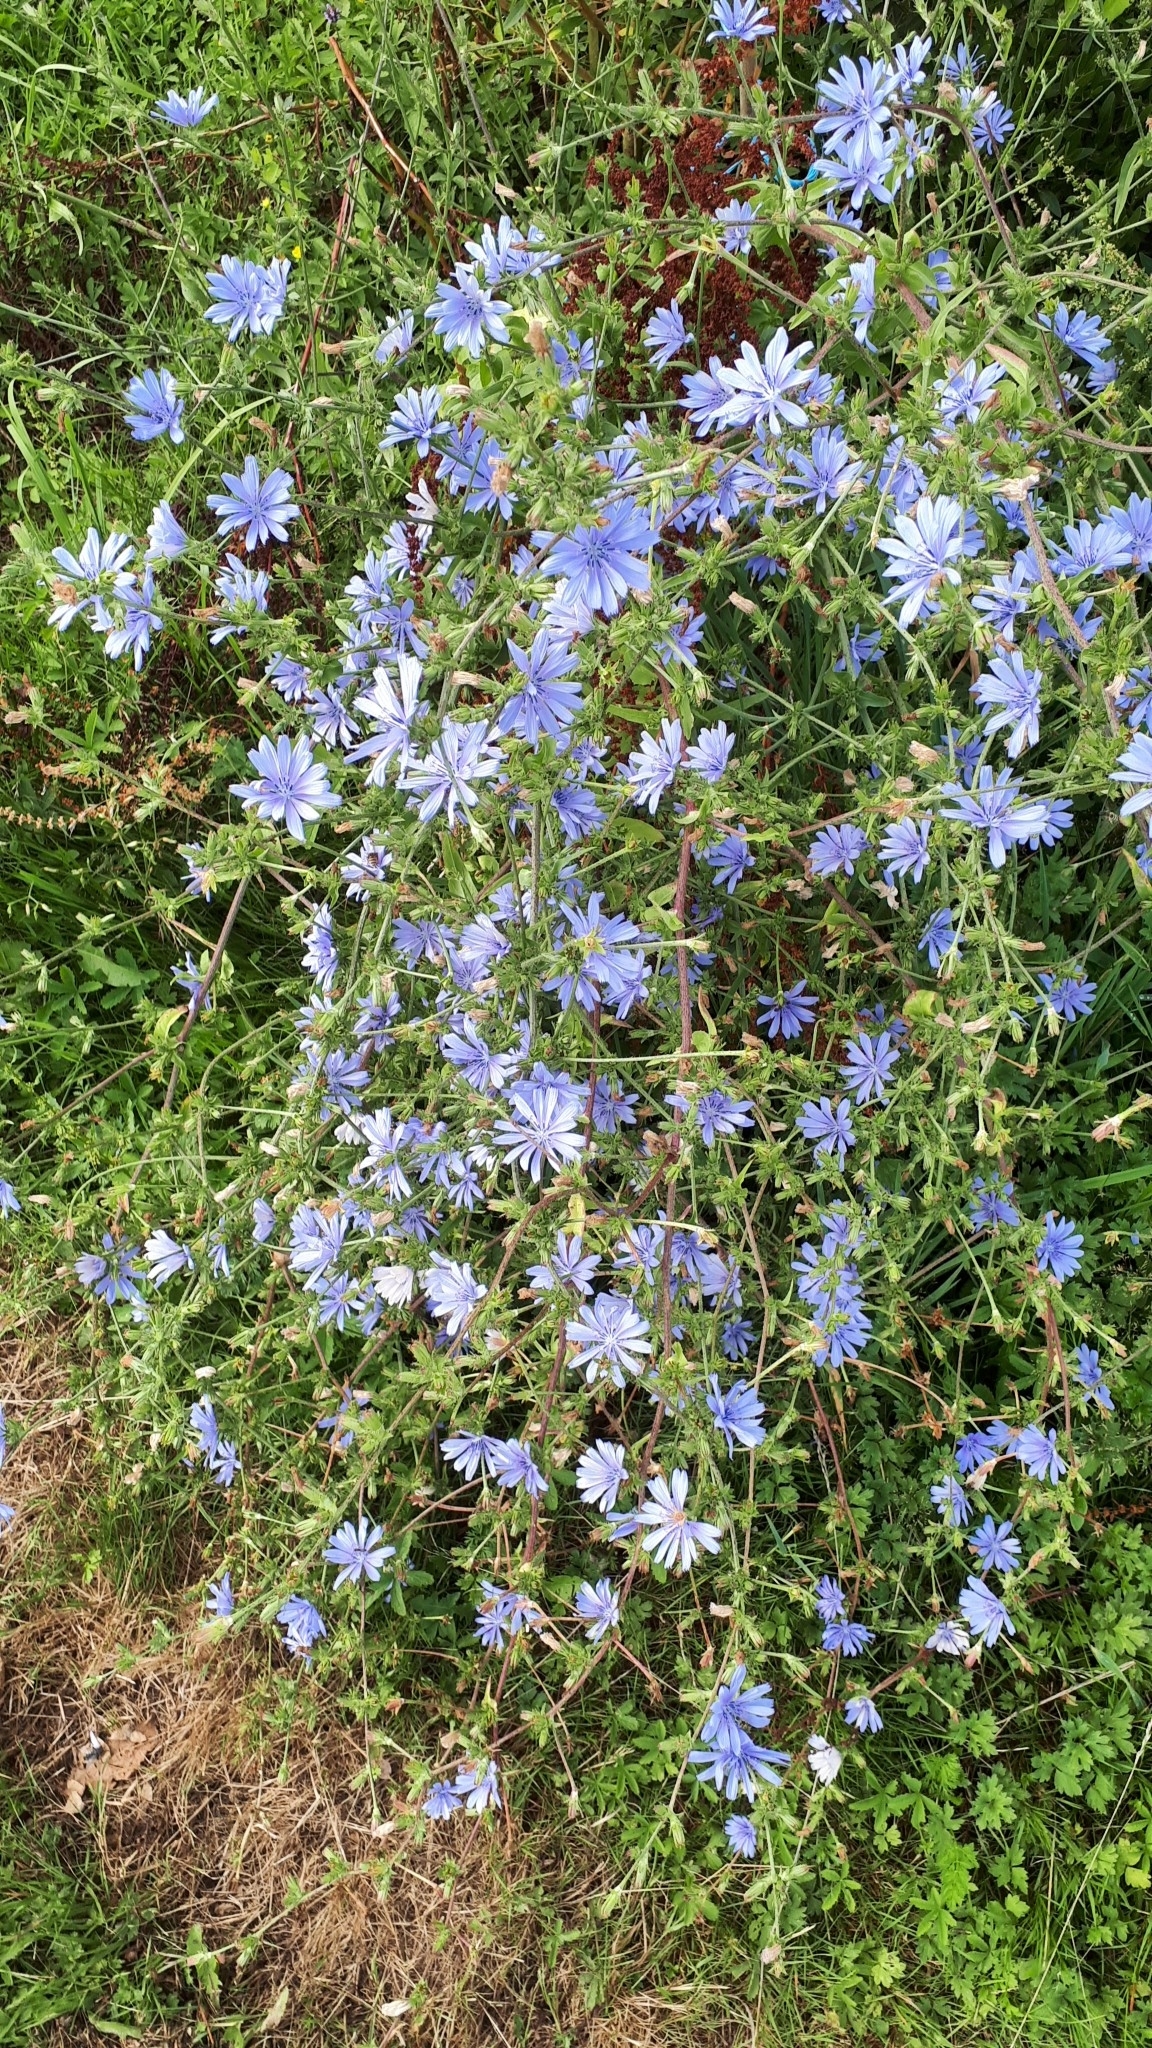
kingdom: Plantae
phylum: Tracheophyta
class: Magnoliopsida
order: Asterales
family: Asteraceae
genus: Cichorium
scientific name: Cichorium intybus
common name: Chicory
